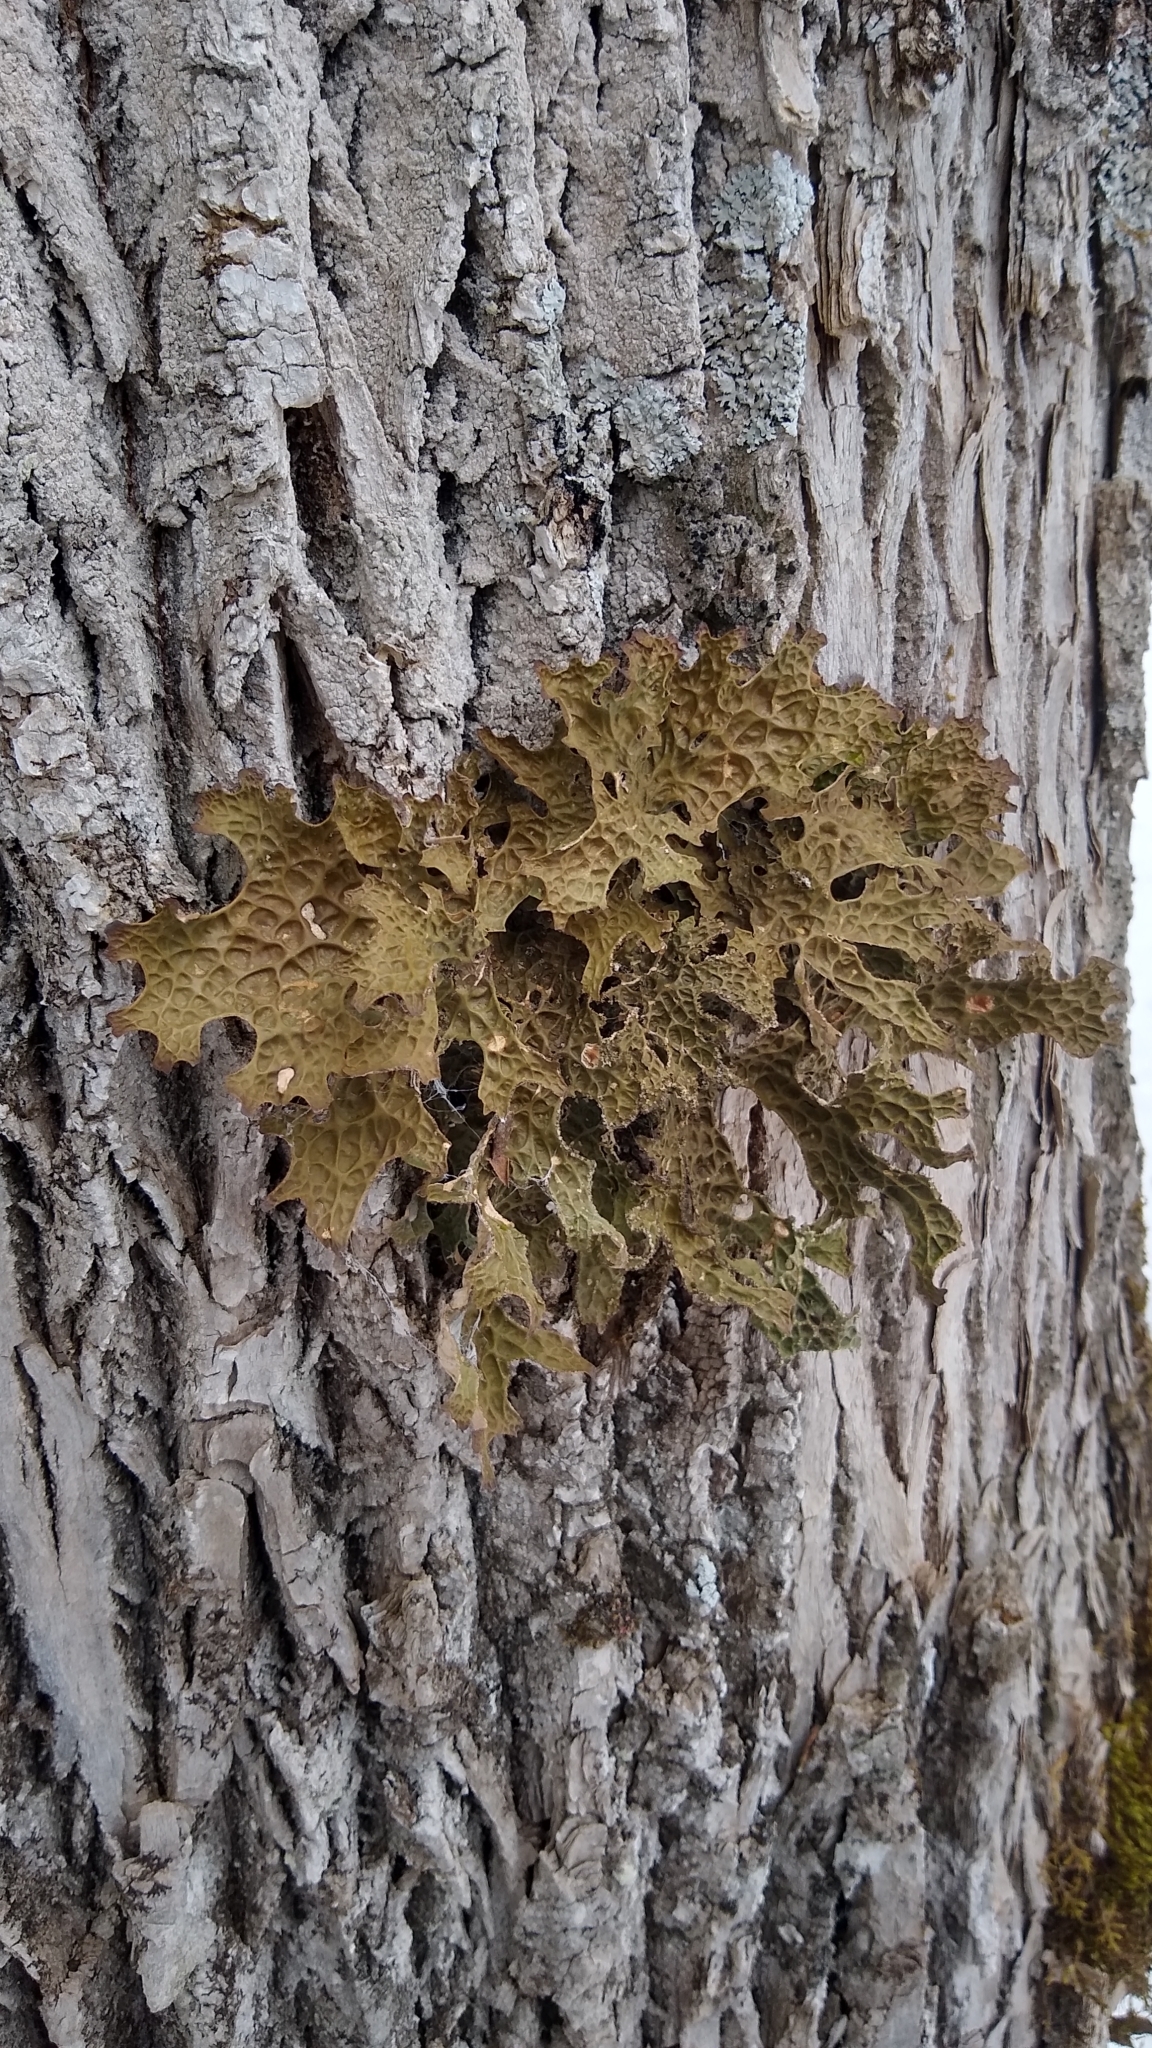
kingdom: Fungi
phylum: Ascomycota
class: Lecanoromycetes
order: Peltigerales
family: Lobariaceae
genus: Lobaria
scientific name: Lobaria pulmonaria
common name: Lungwort
